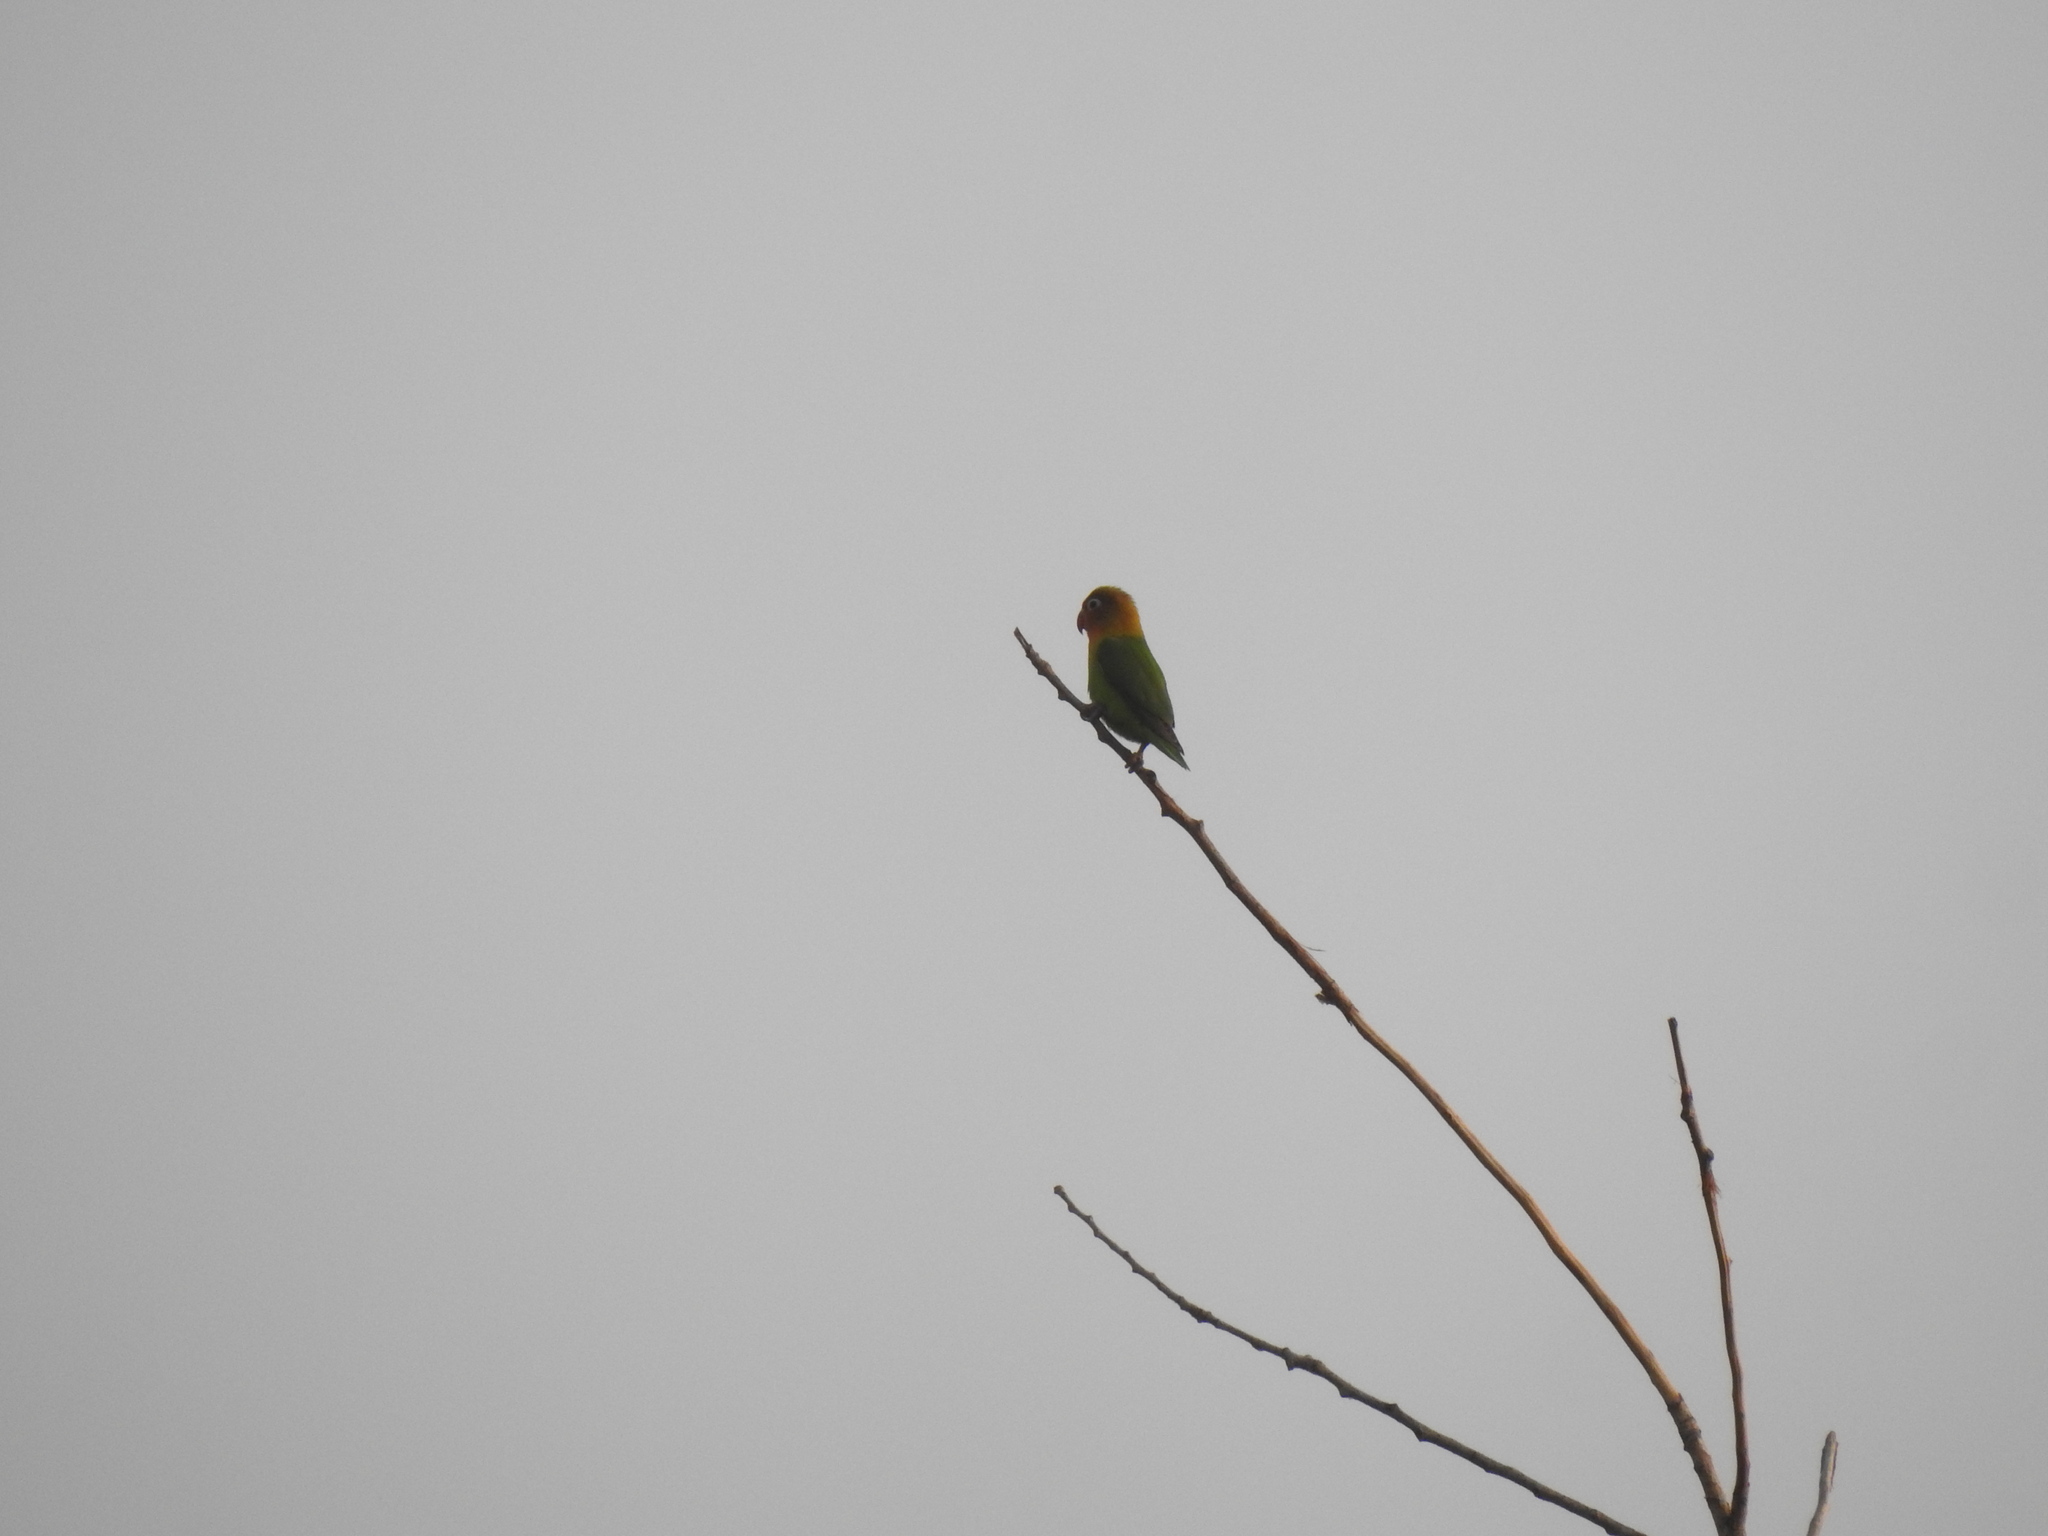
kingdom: Animalia
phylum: Chordata
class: Aves
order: Psittaciformes
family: Psittacidae
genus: Agapornis
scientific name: Agapornis fischeri
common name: Fischer's lovebird
